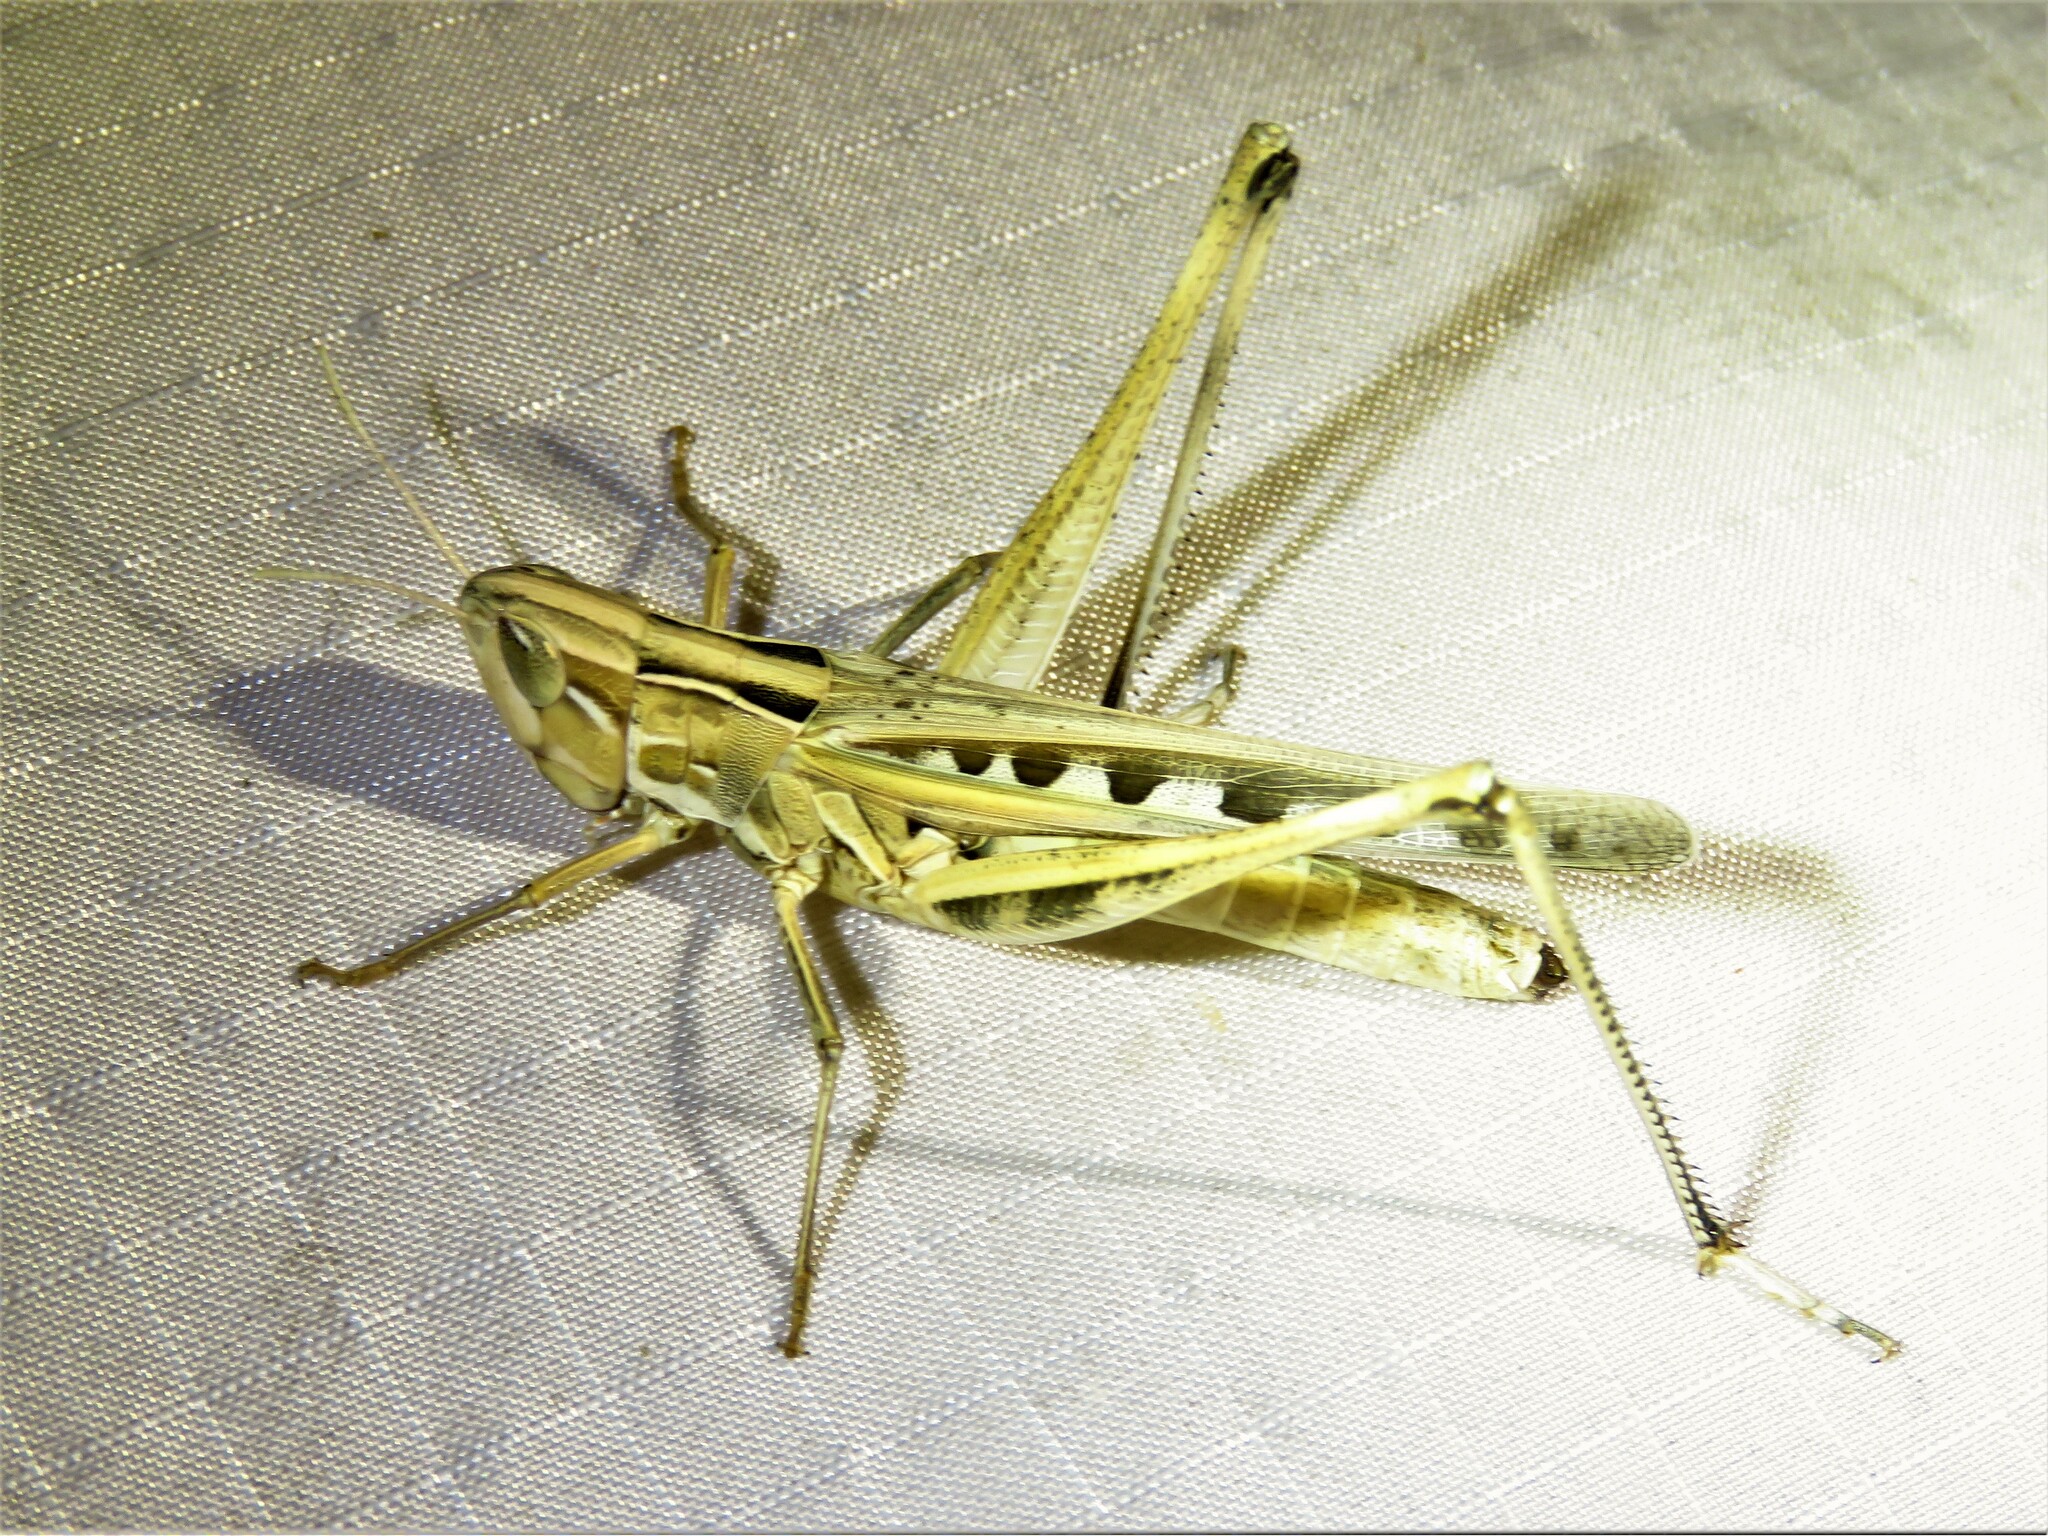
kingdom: Animalia
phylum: Arthropoda
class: Insecta
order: Orthoptera
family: Acrididae
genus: Syrbula
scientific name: Syrbula admirabilis
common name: Handsome grasshopper
